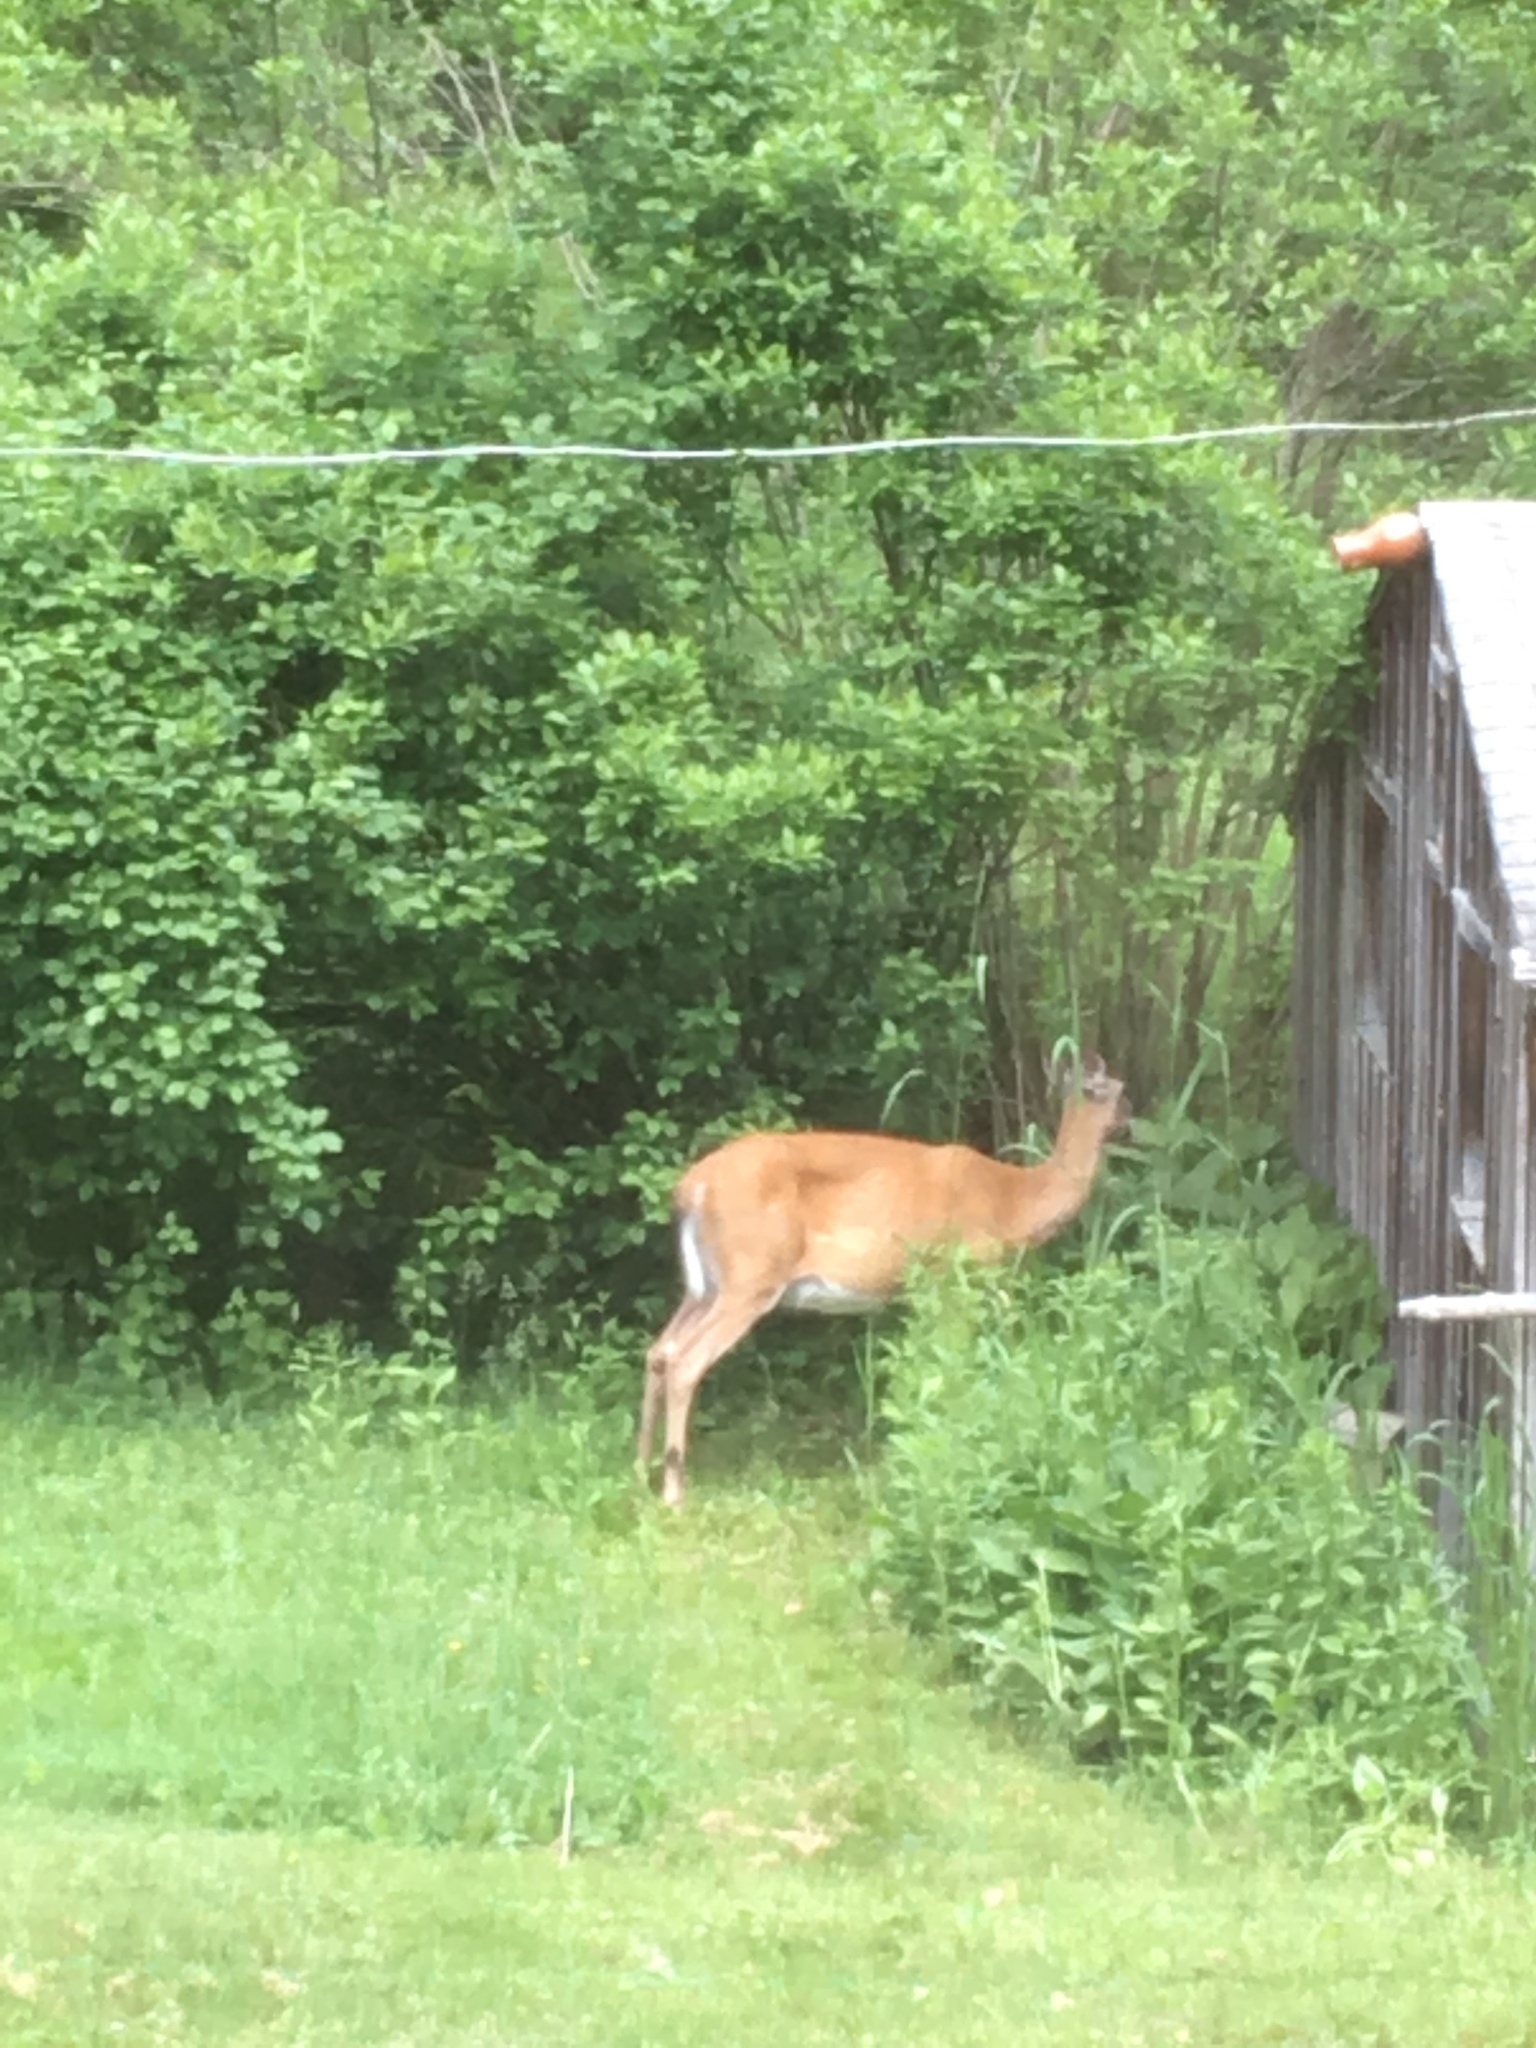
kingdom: Animalia
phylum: Chordata
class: Mammalia
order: Artiodactyla
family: Cervidae
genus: Odocoileus
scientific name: Odocoileus virginianus
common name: White-tailed deer
